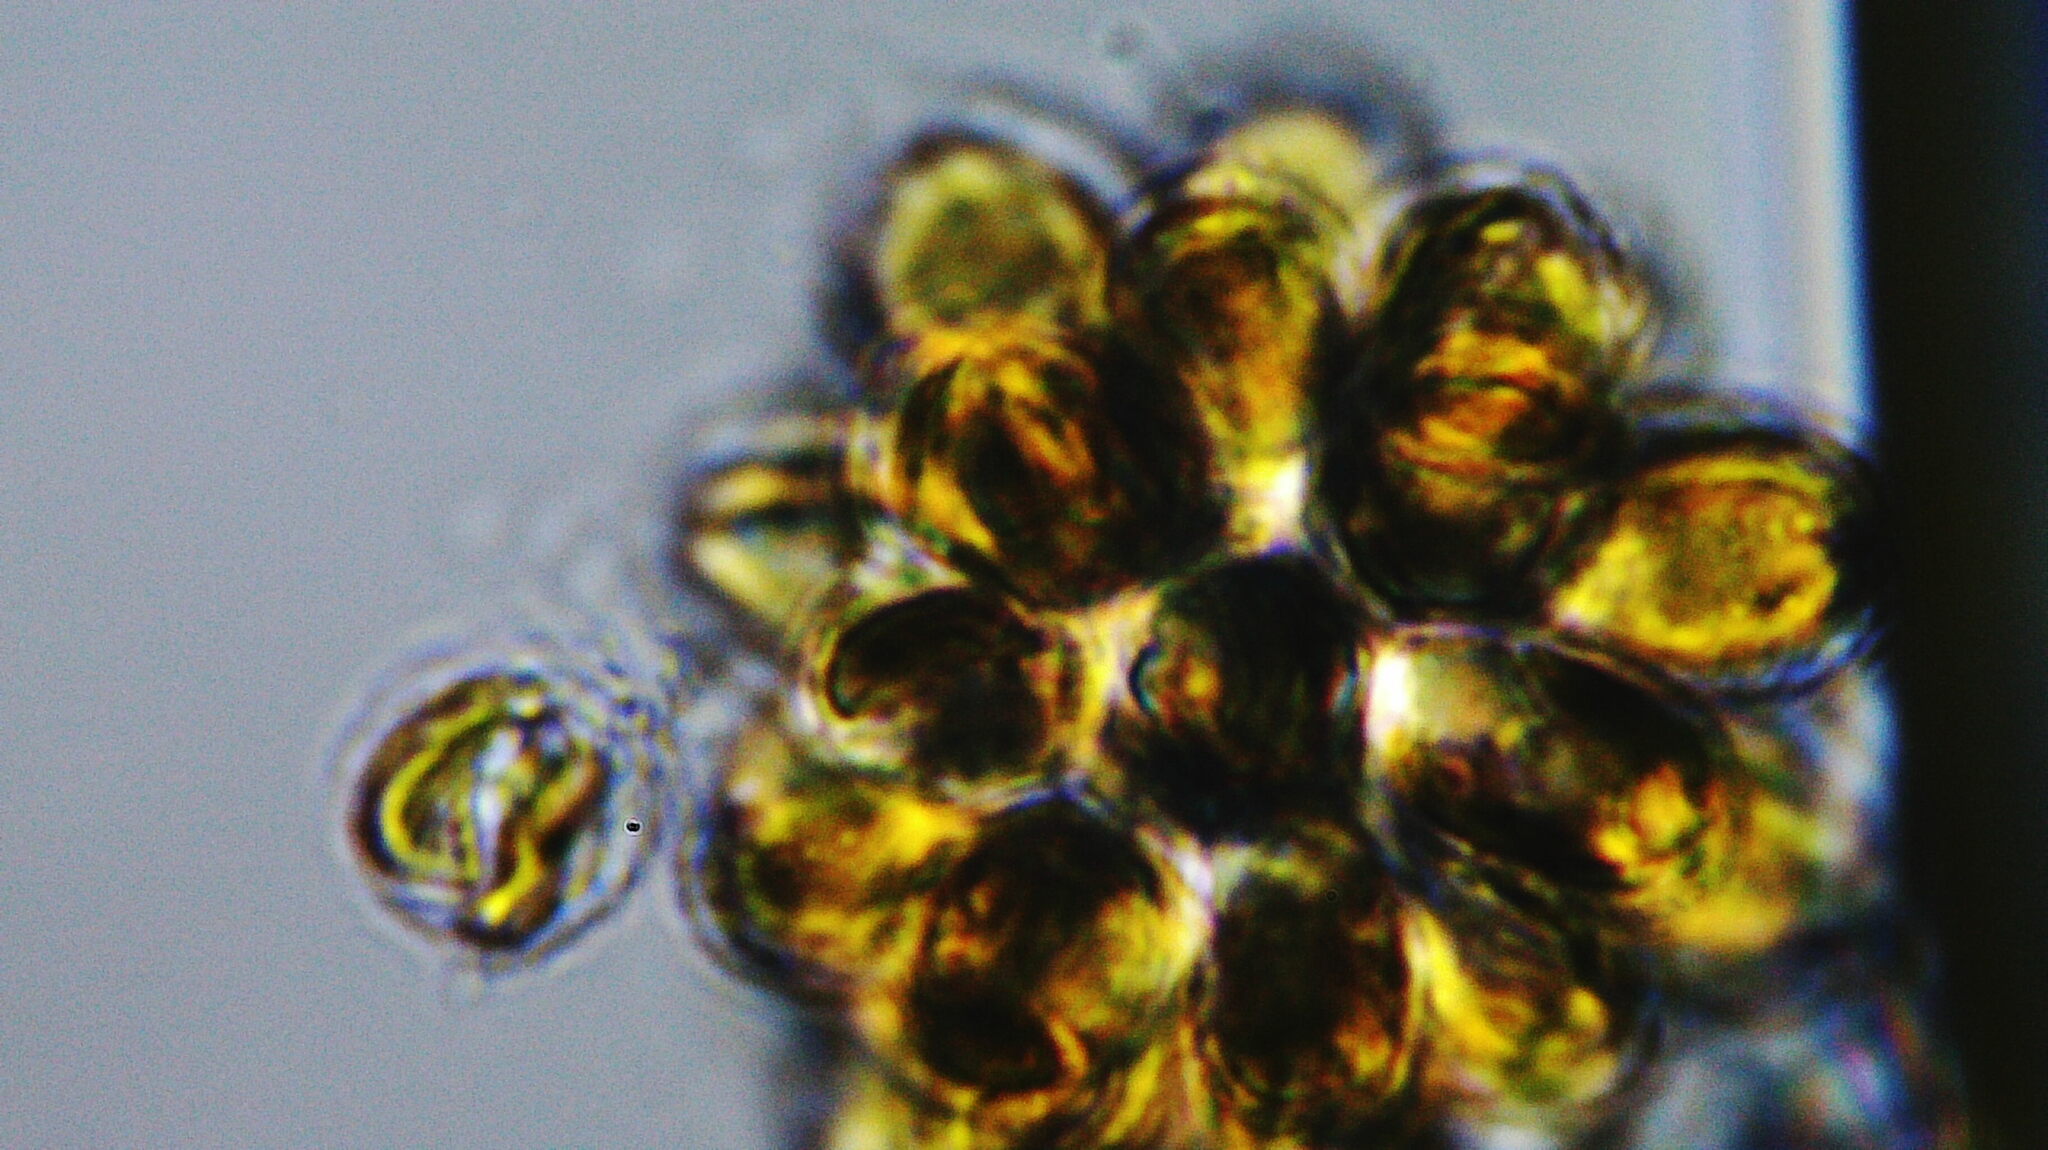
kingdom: Chromista
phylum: Ochrophyta
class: Synurophyceae
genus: Synura
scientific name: Synura
